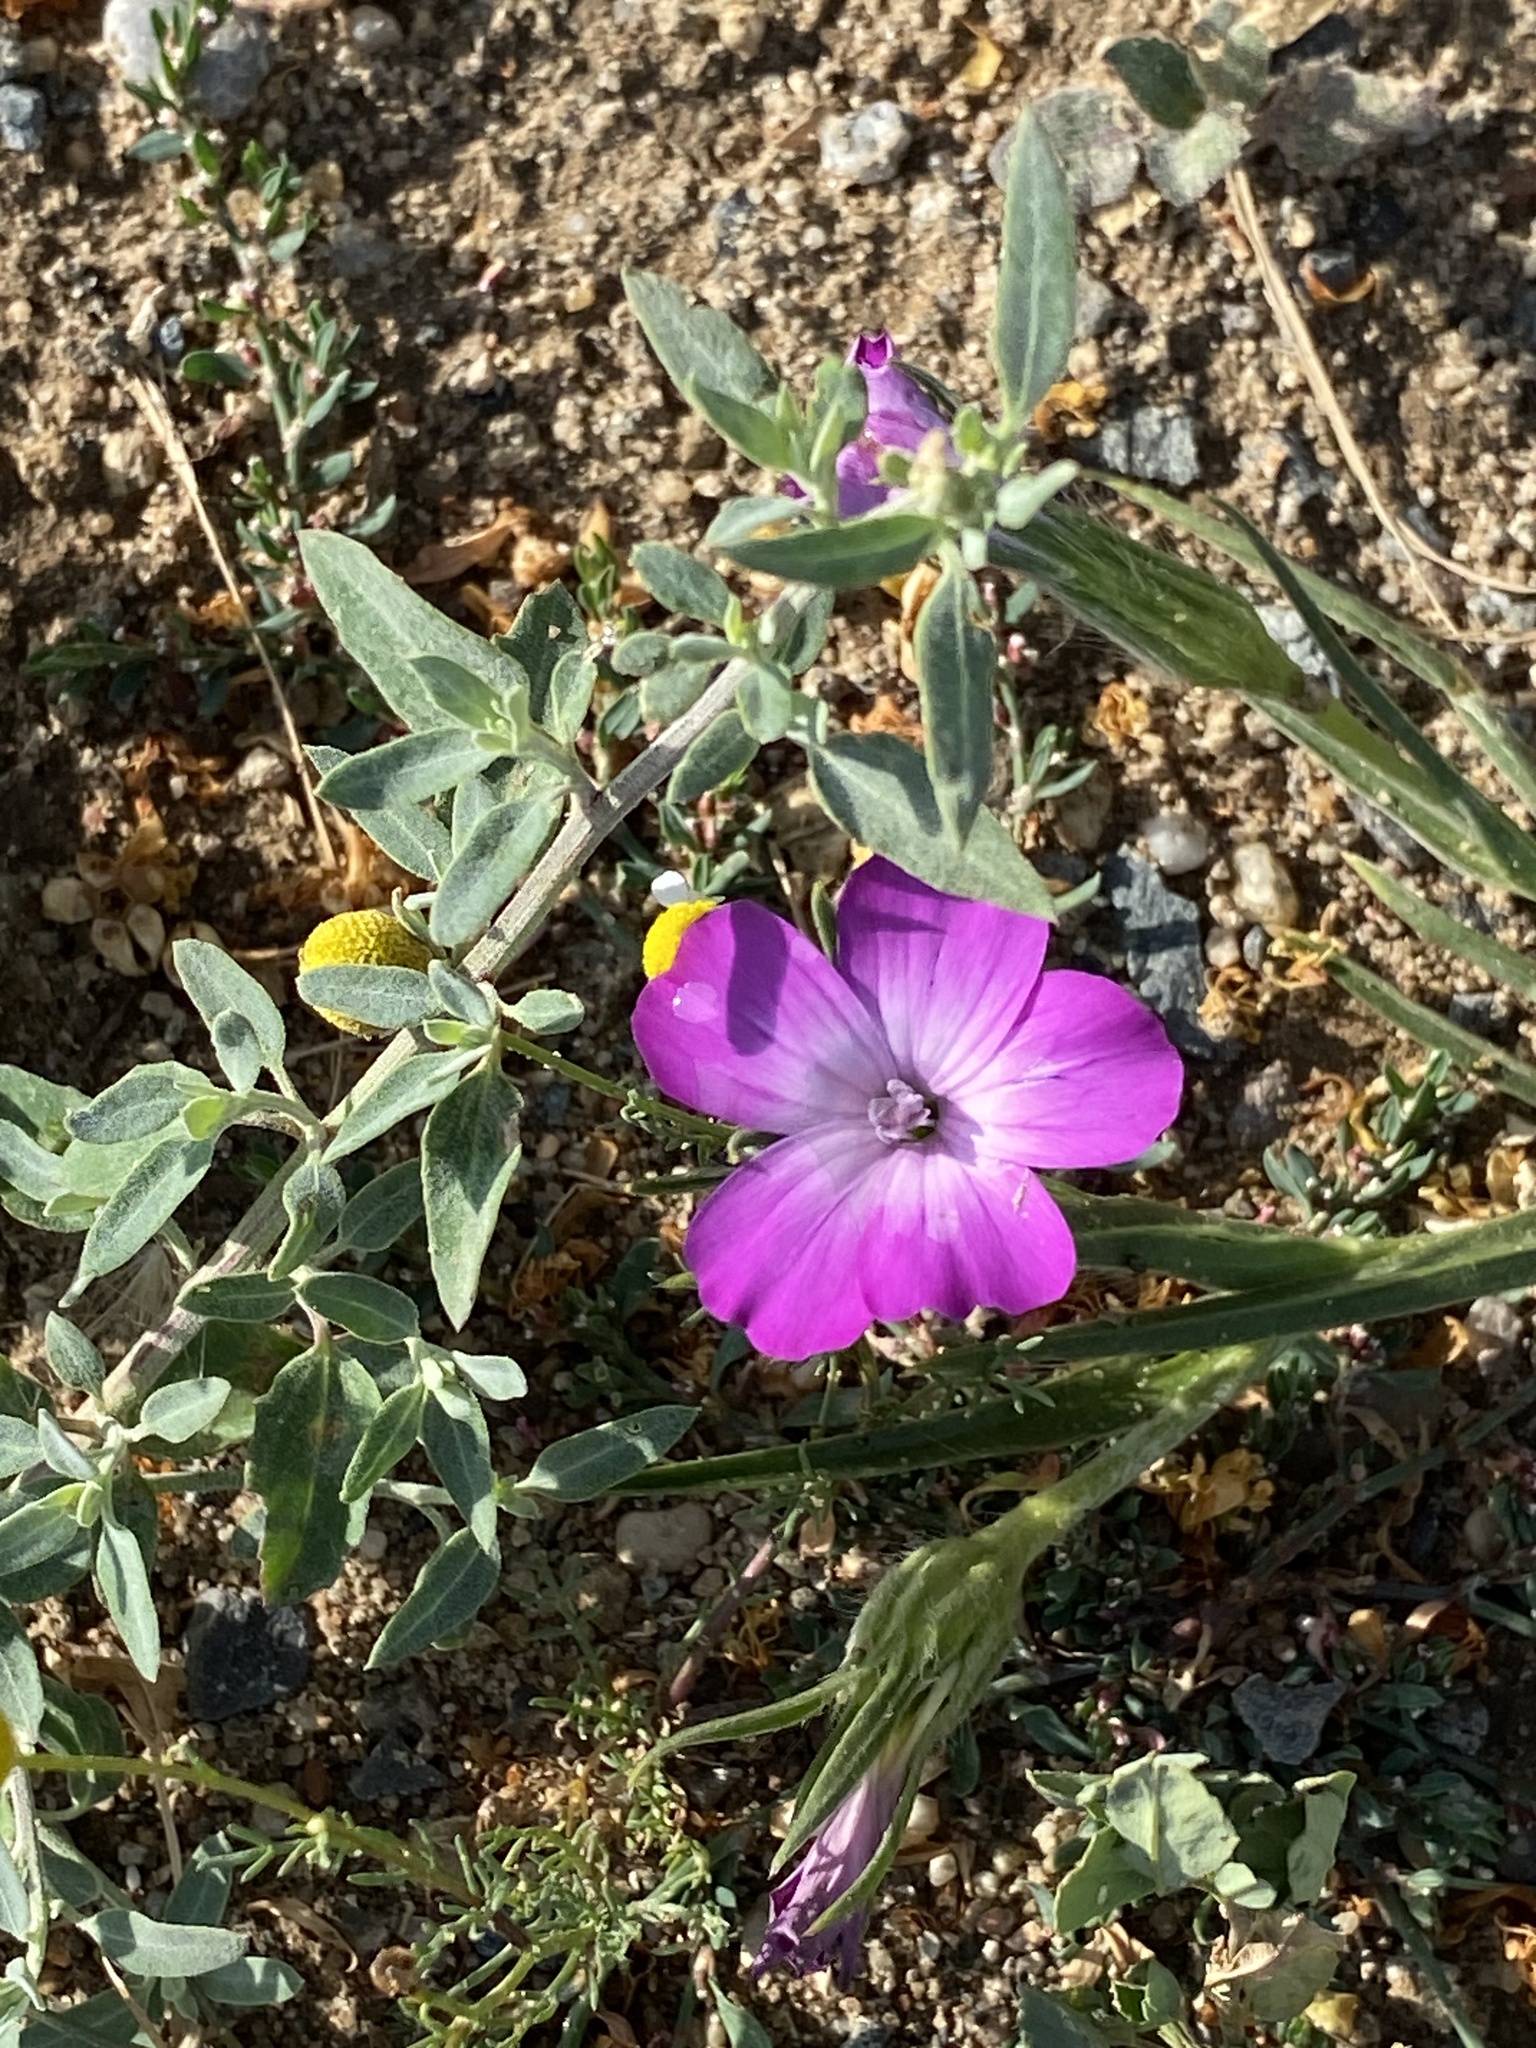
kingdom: Plantae
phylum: Tracheophyta
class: Magnoliopsida
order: Caryophyllales
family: Caryophyllaceae
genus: Agrostemma
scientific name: Agrostemma githago
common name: Common corncockle
